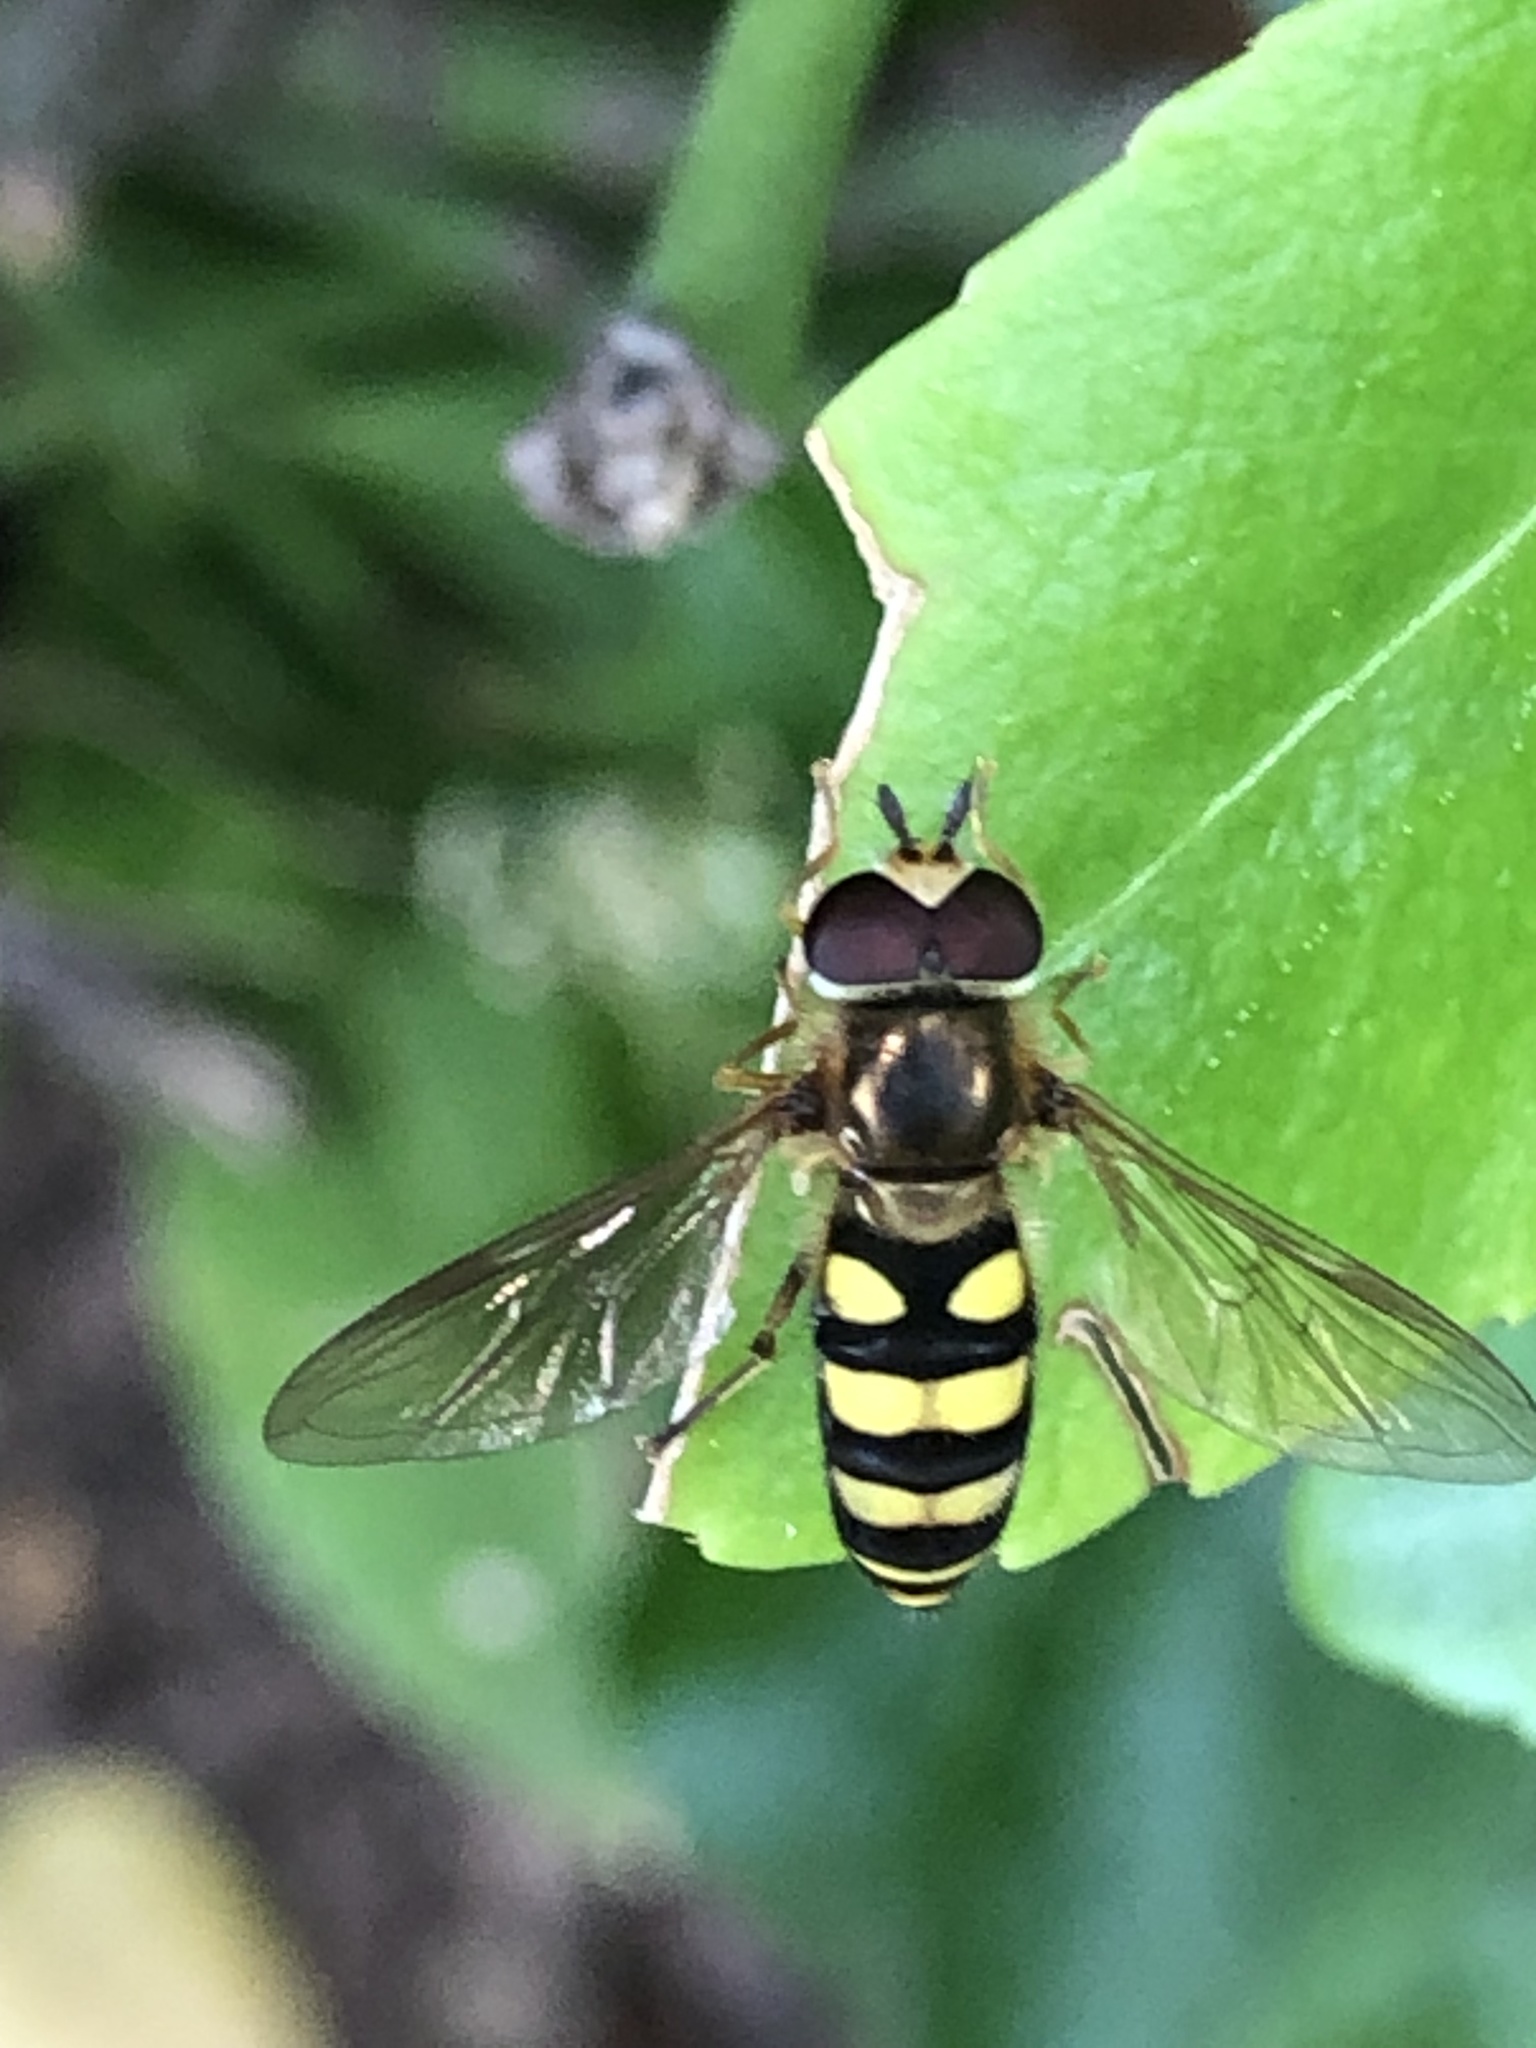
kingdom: Animalia
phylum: Arthropoda
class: Insecta
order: Diptera
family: Syrphidae
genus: Eupeodes
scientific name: Eupeodes
